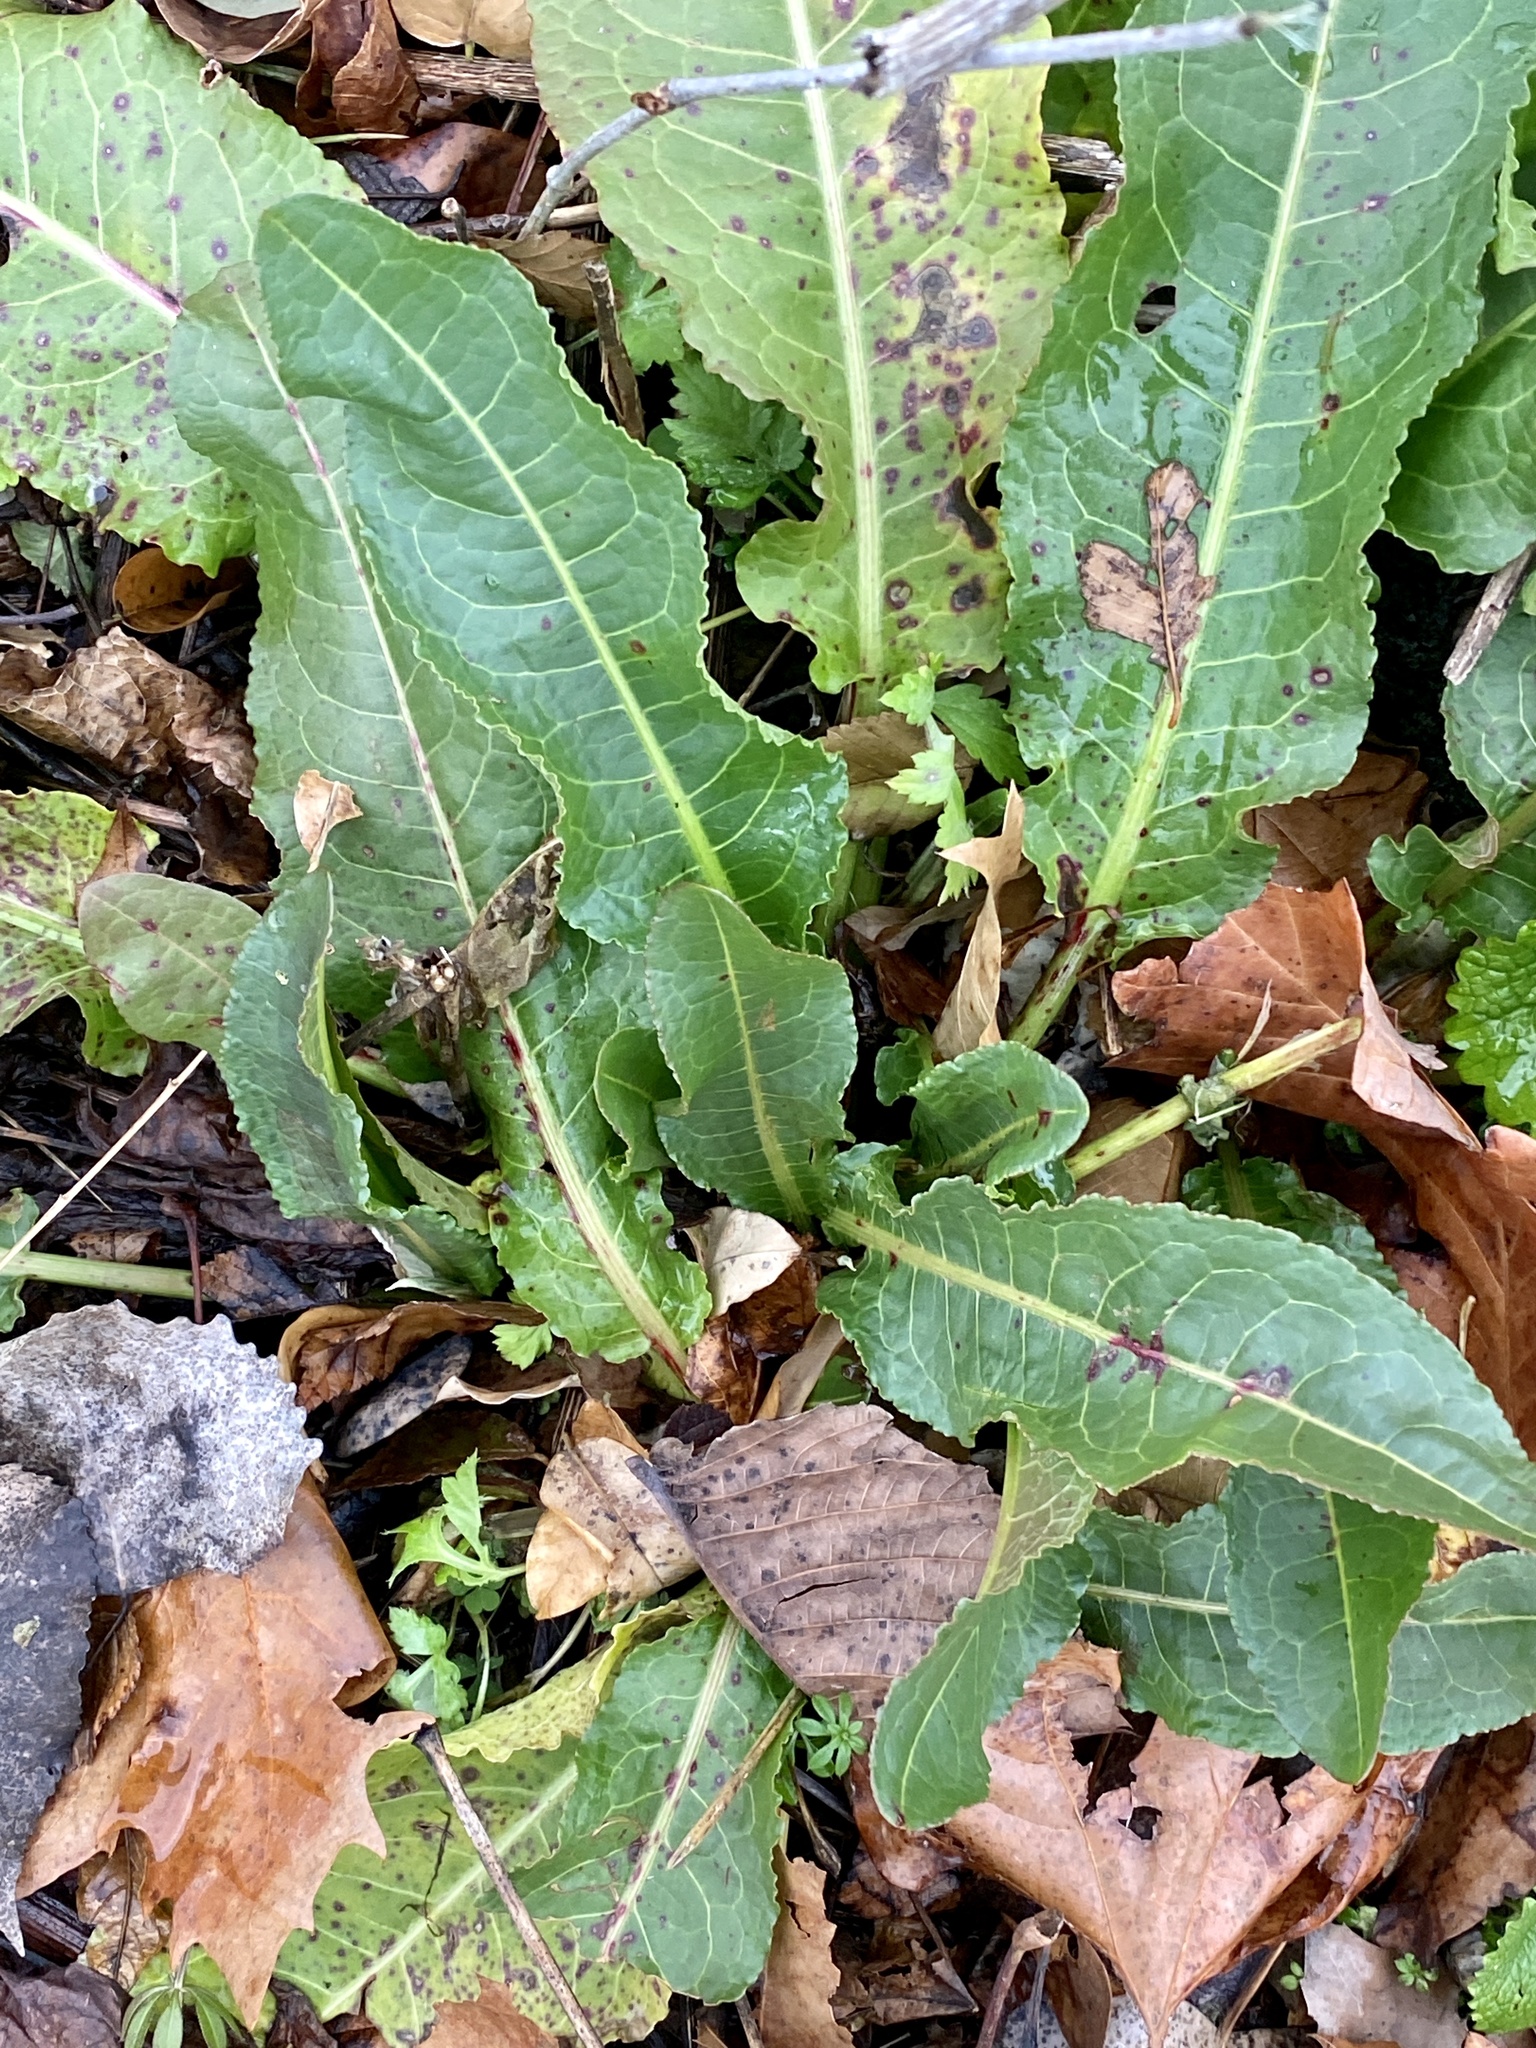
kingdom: Plantae
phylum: Tracheophyta
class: Magnoliopsida
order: Caryophyllales
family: Polygonaceae
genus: Rumex
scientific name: Rumex crispus
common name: Curled dock
